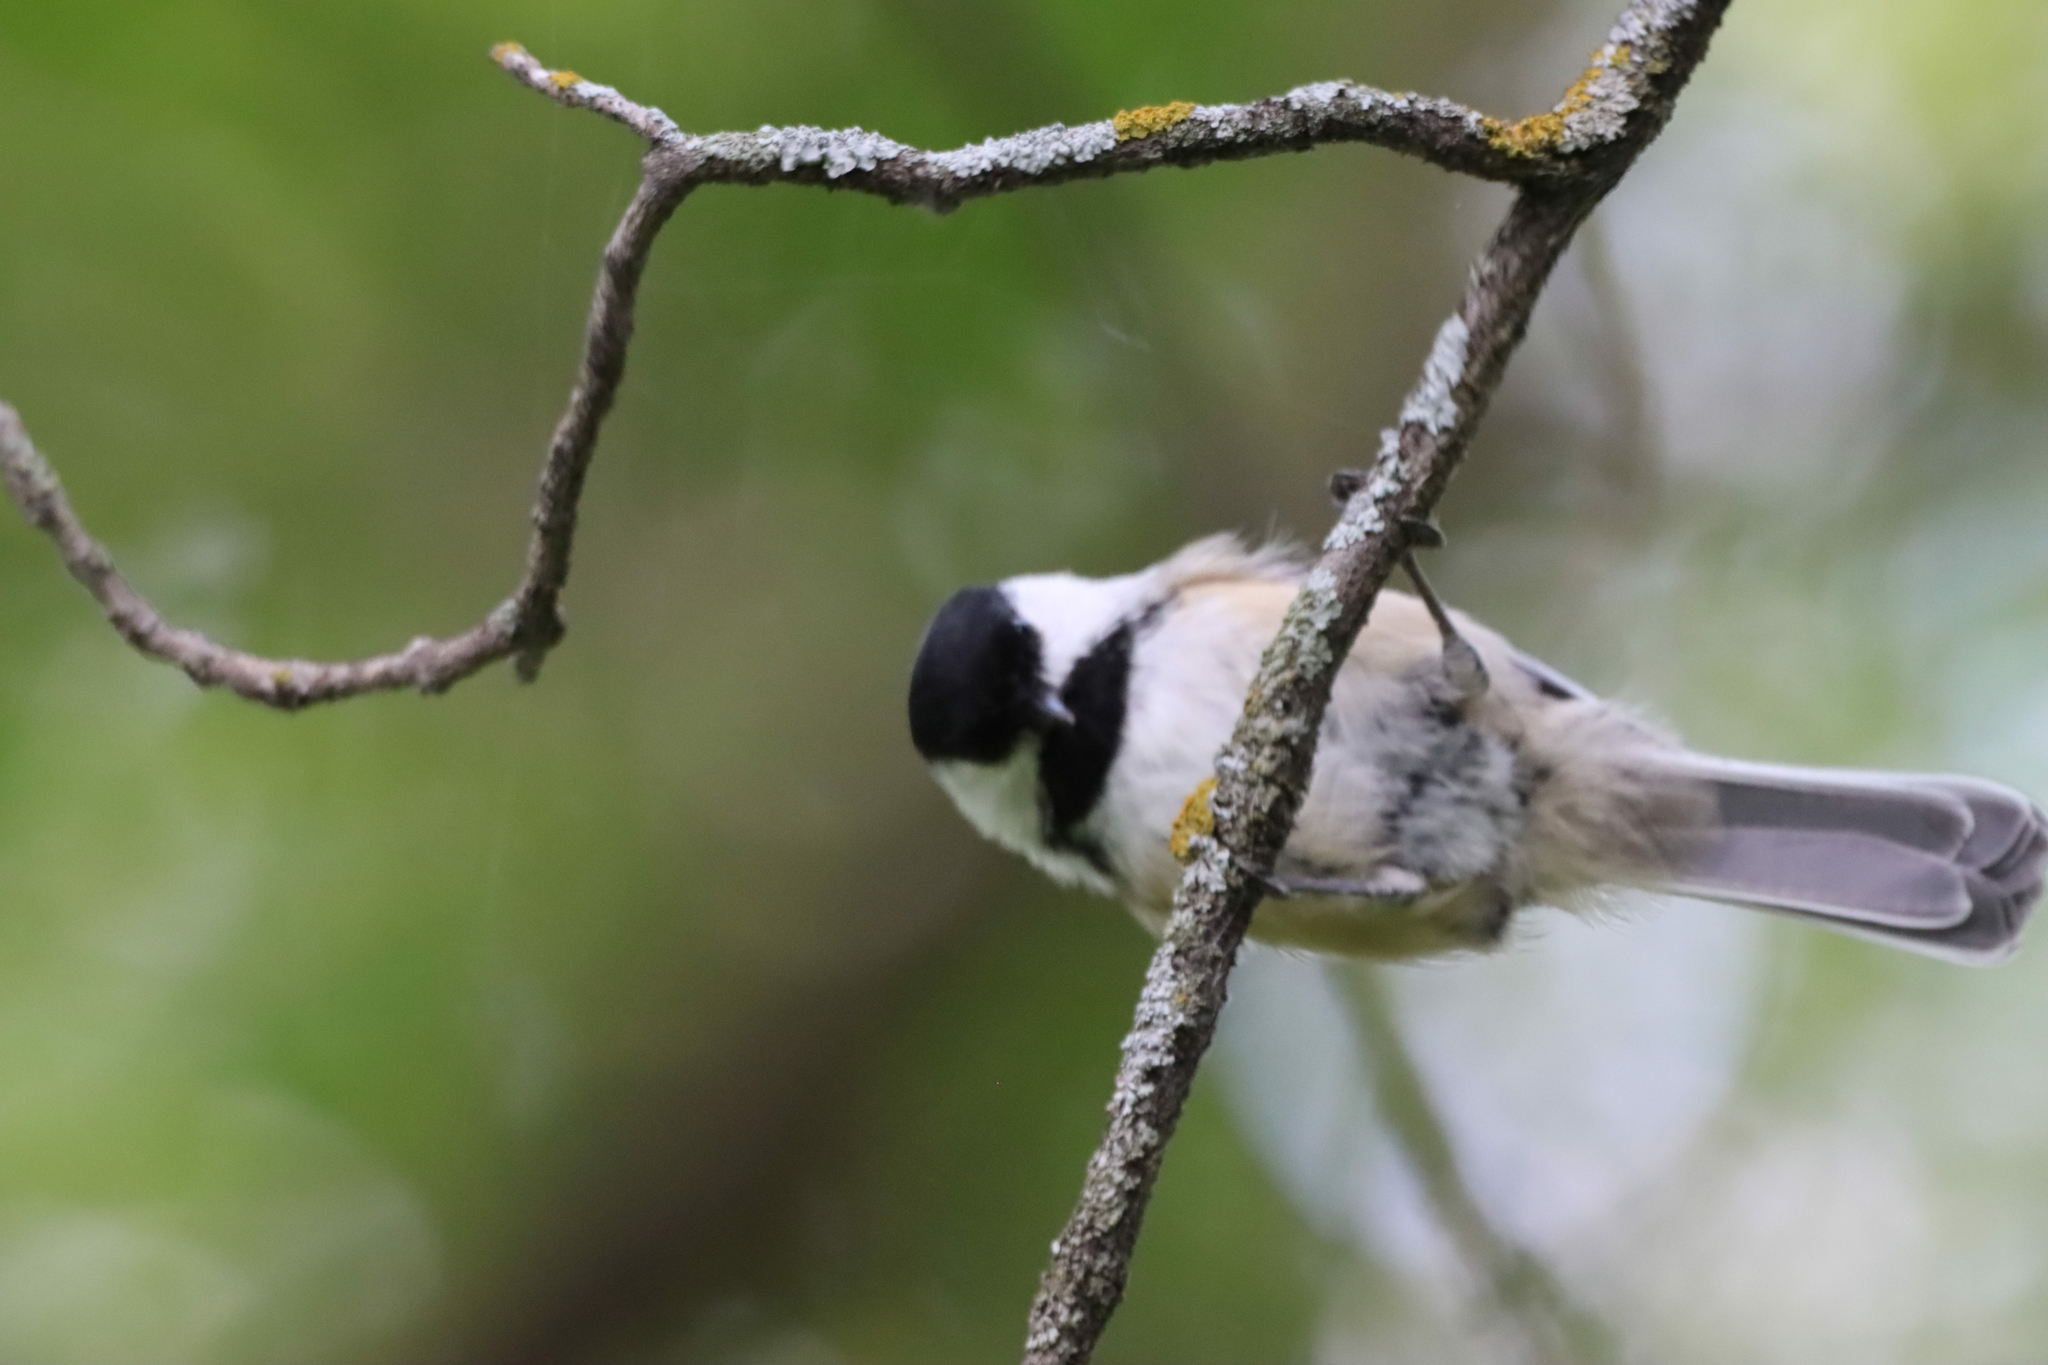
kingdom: Animalia
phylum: Chordata
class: Aves
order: Passeriformes
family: Paridae
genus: Poecile
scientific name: Poecile atricapillus
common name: Black-capped chickadee
